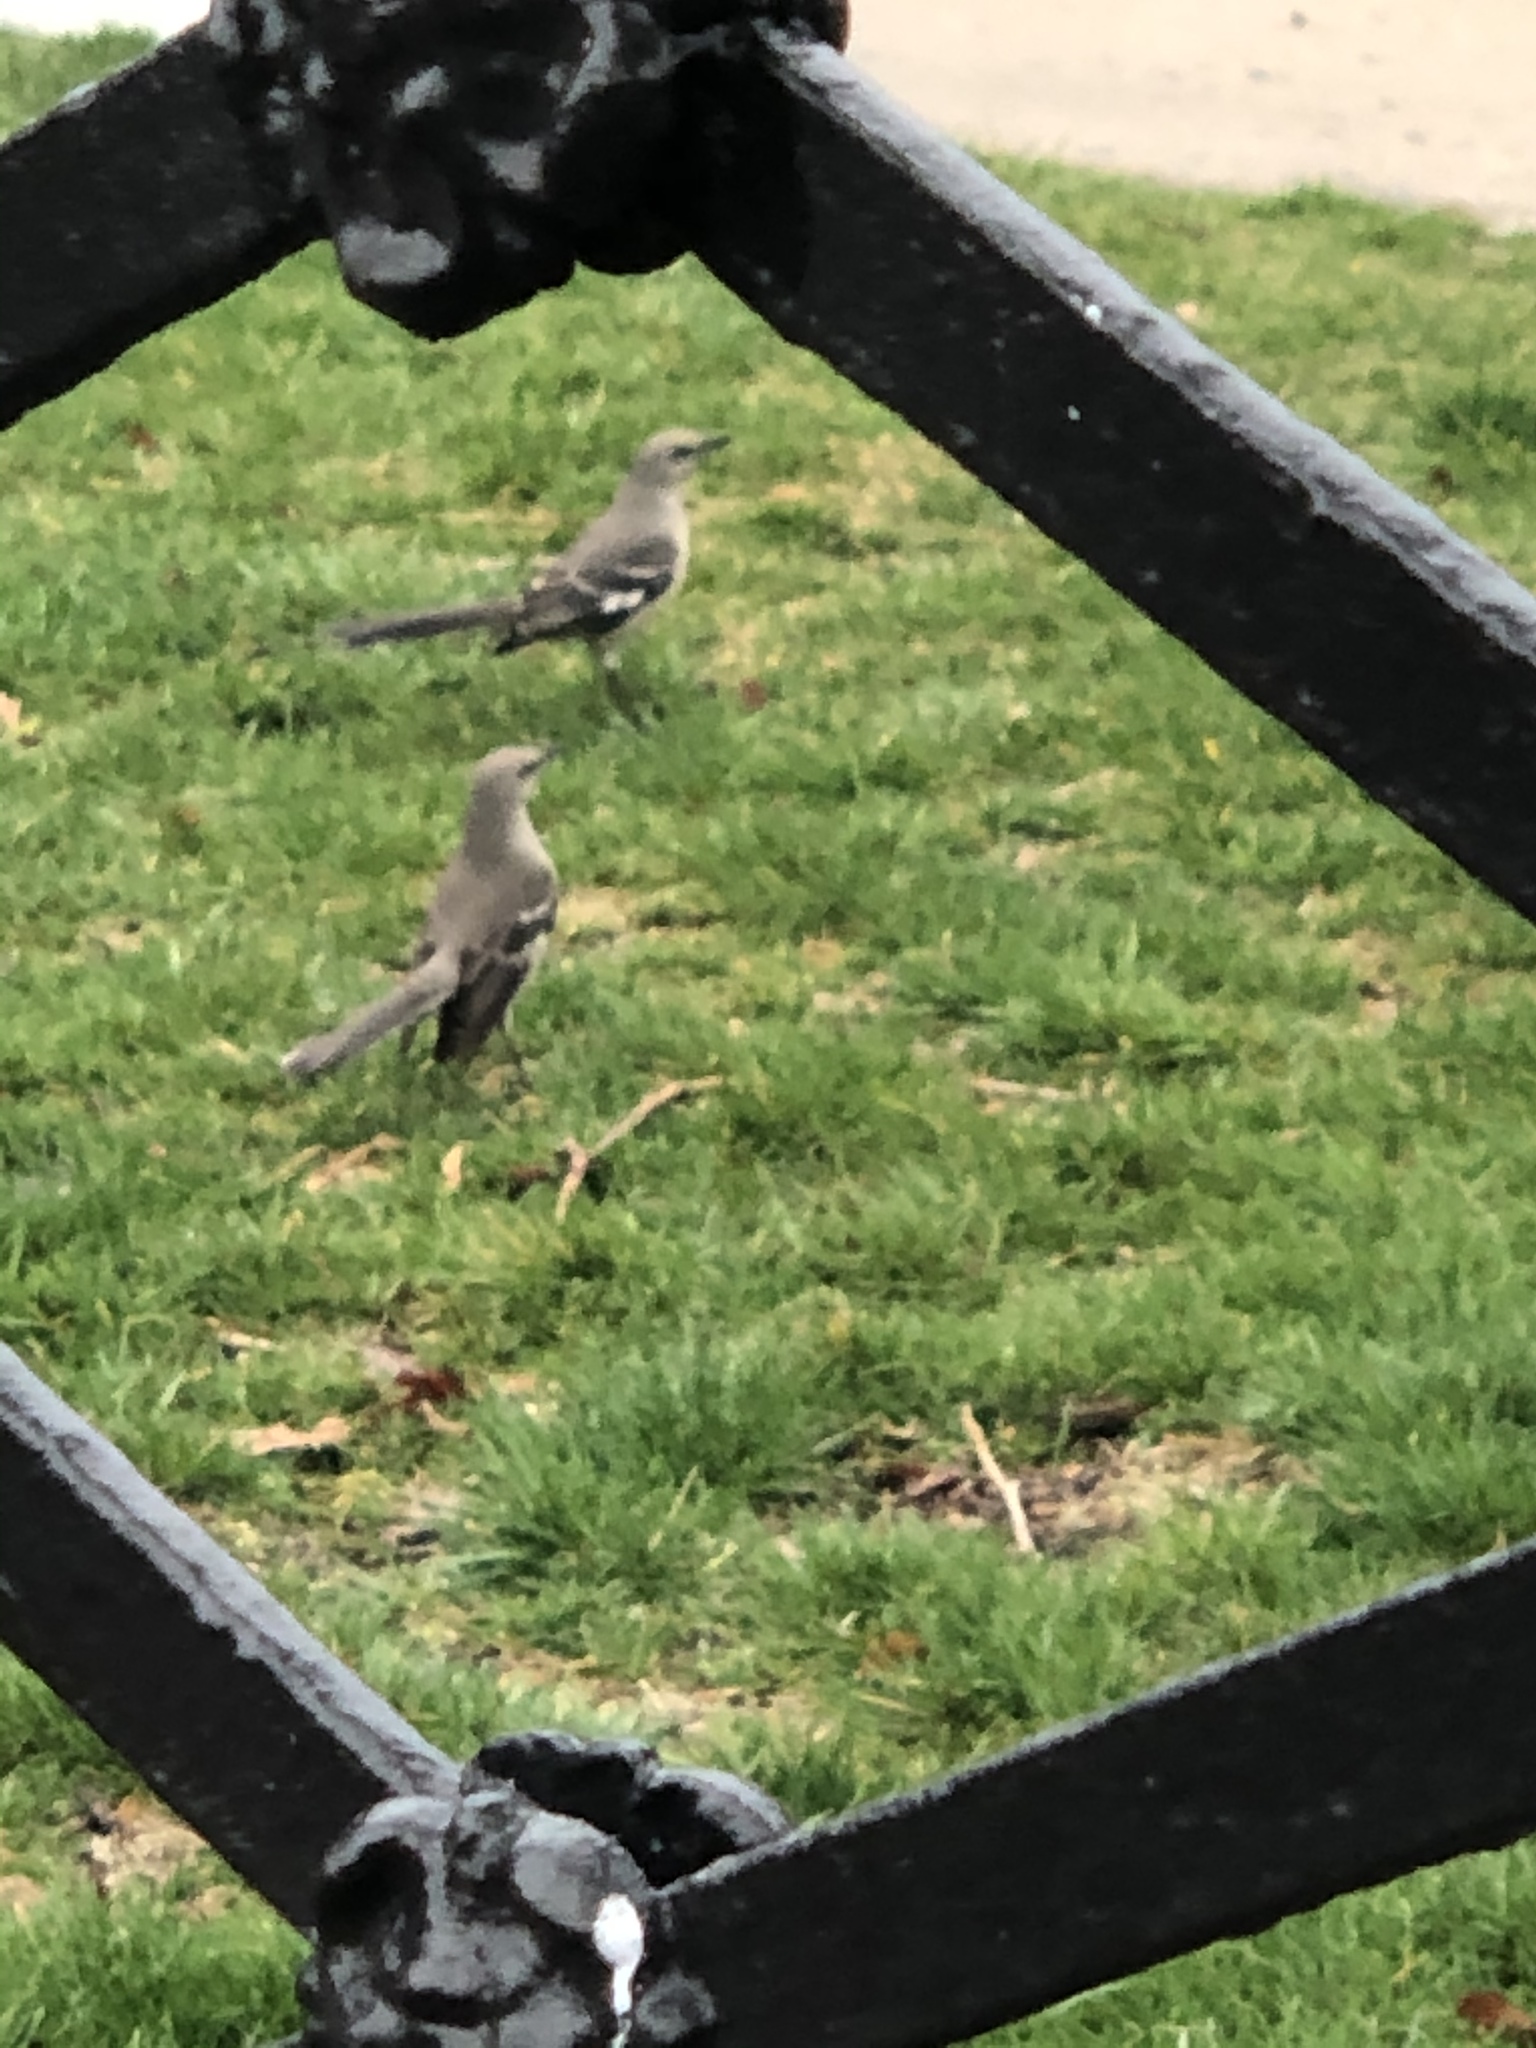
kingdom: Animalia
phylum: Chordata
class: Aves
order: Passeriformes
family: Mimidae
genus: Mimus
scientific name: Mimus polyglottos
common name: Northern mockingbird
